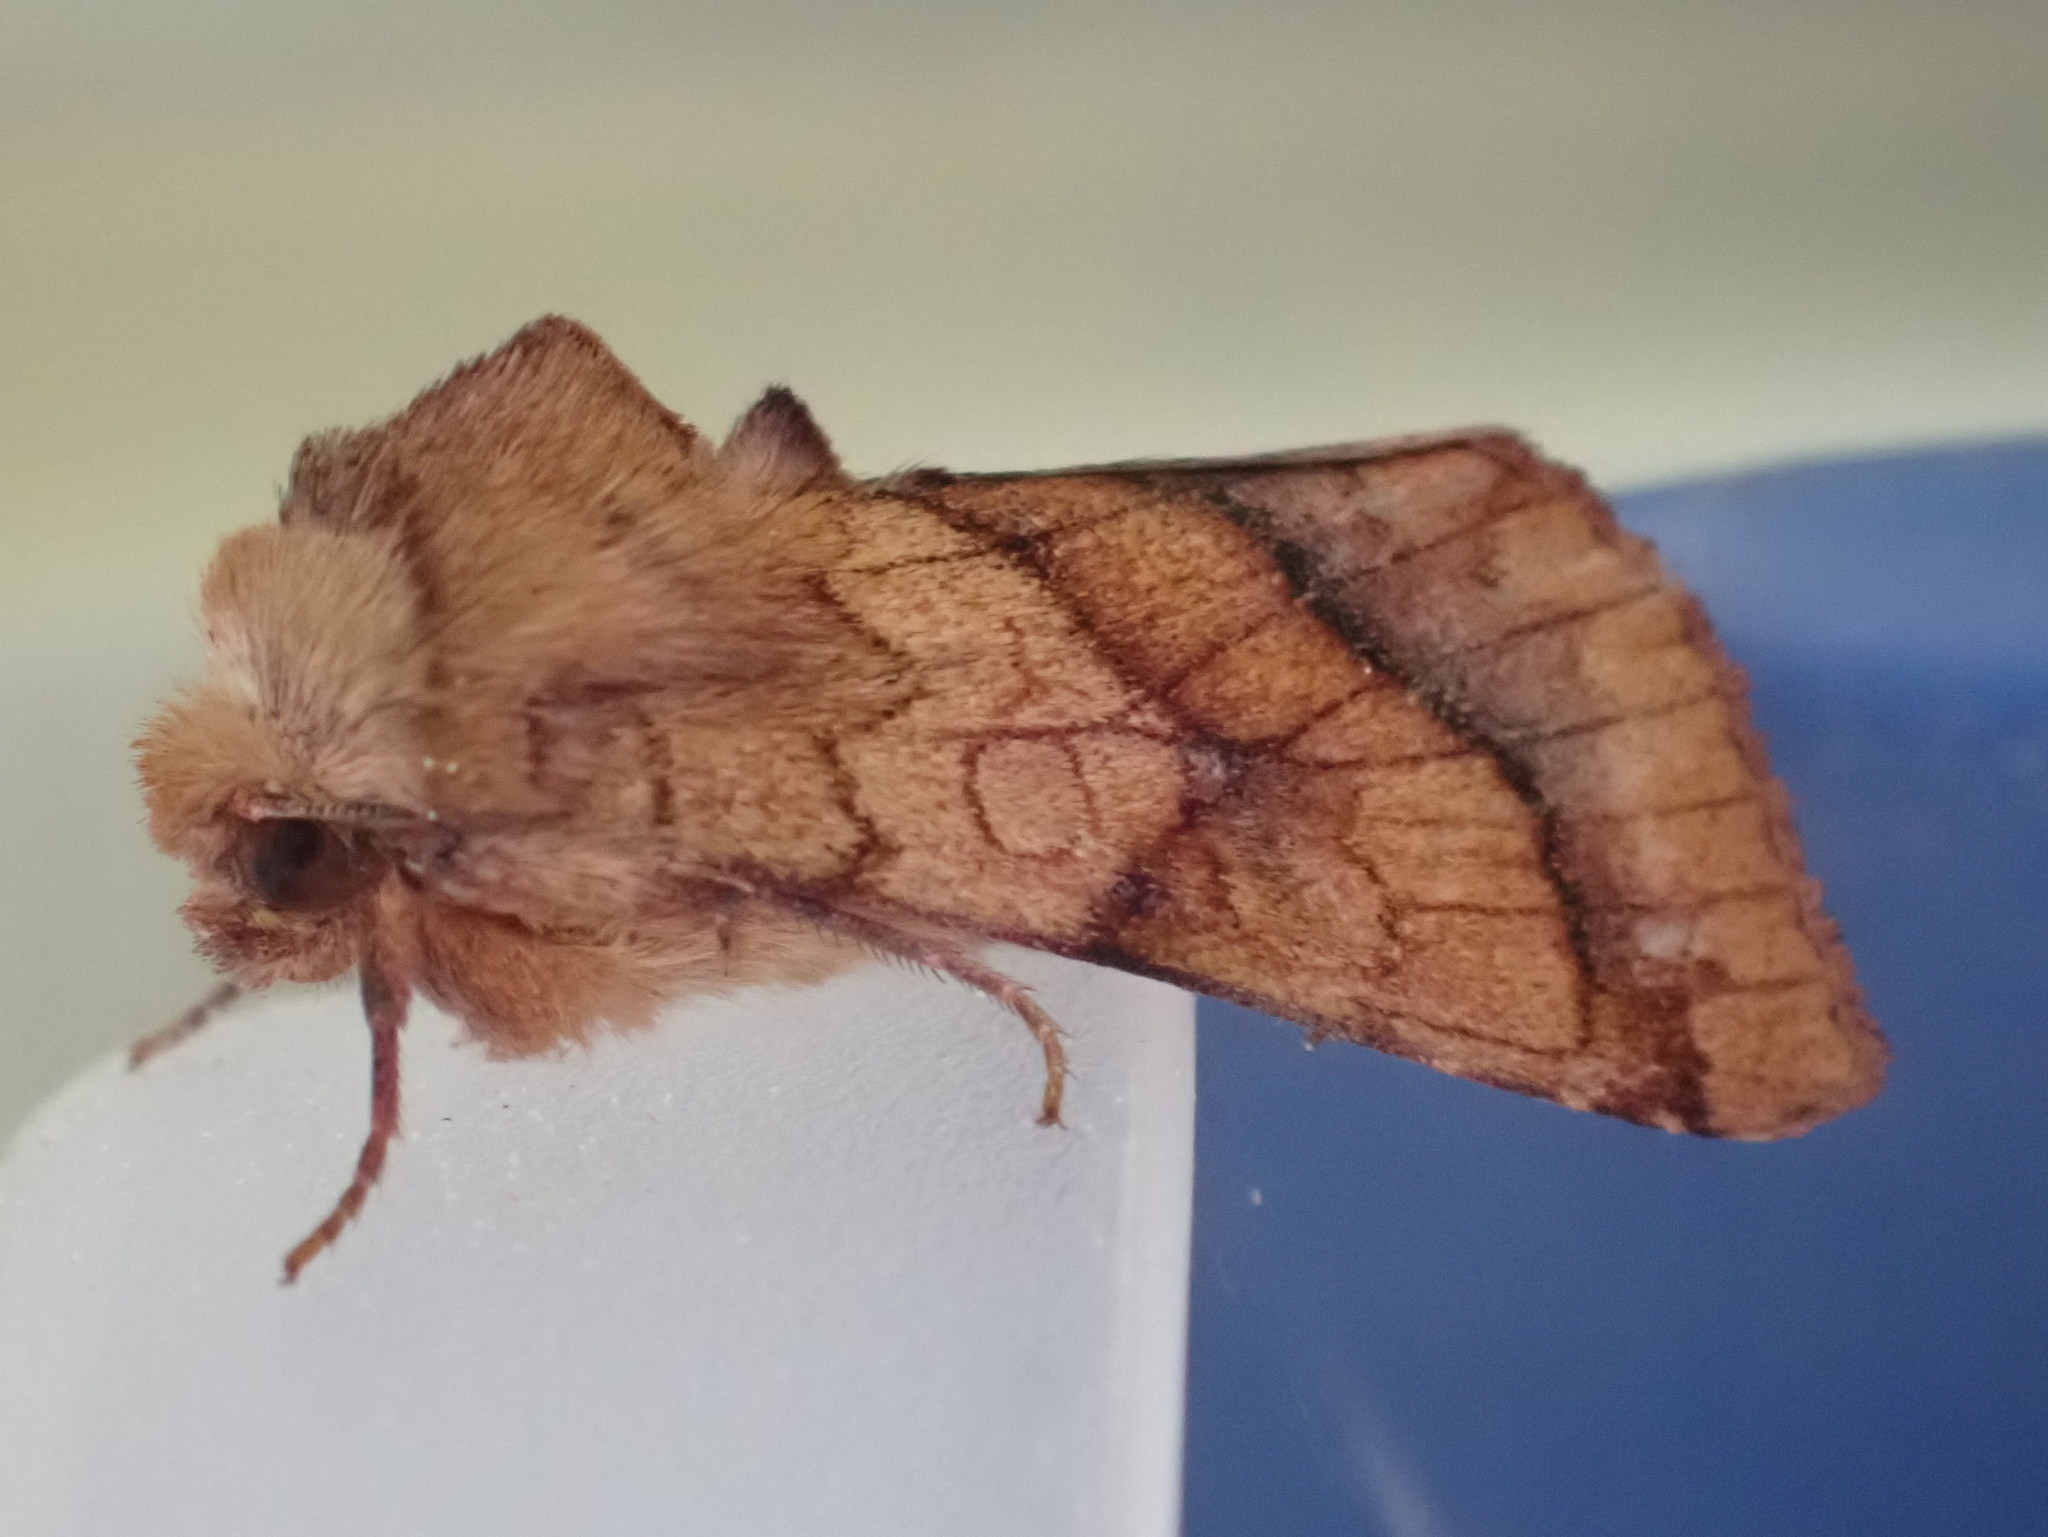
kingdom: Animalia
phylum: Arthropoda
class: Insecta
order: Lepidoptera
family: Noctuidae
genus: Pyrrhia
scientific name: Pyrrhia exprimens
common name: Purple-lined sallow
